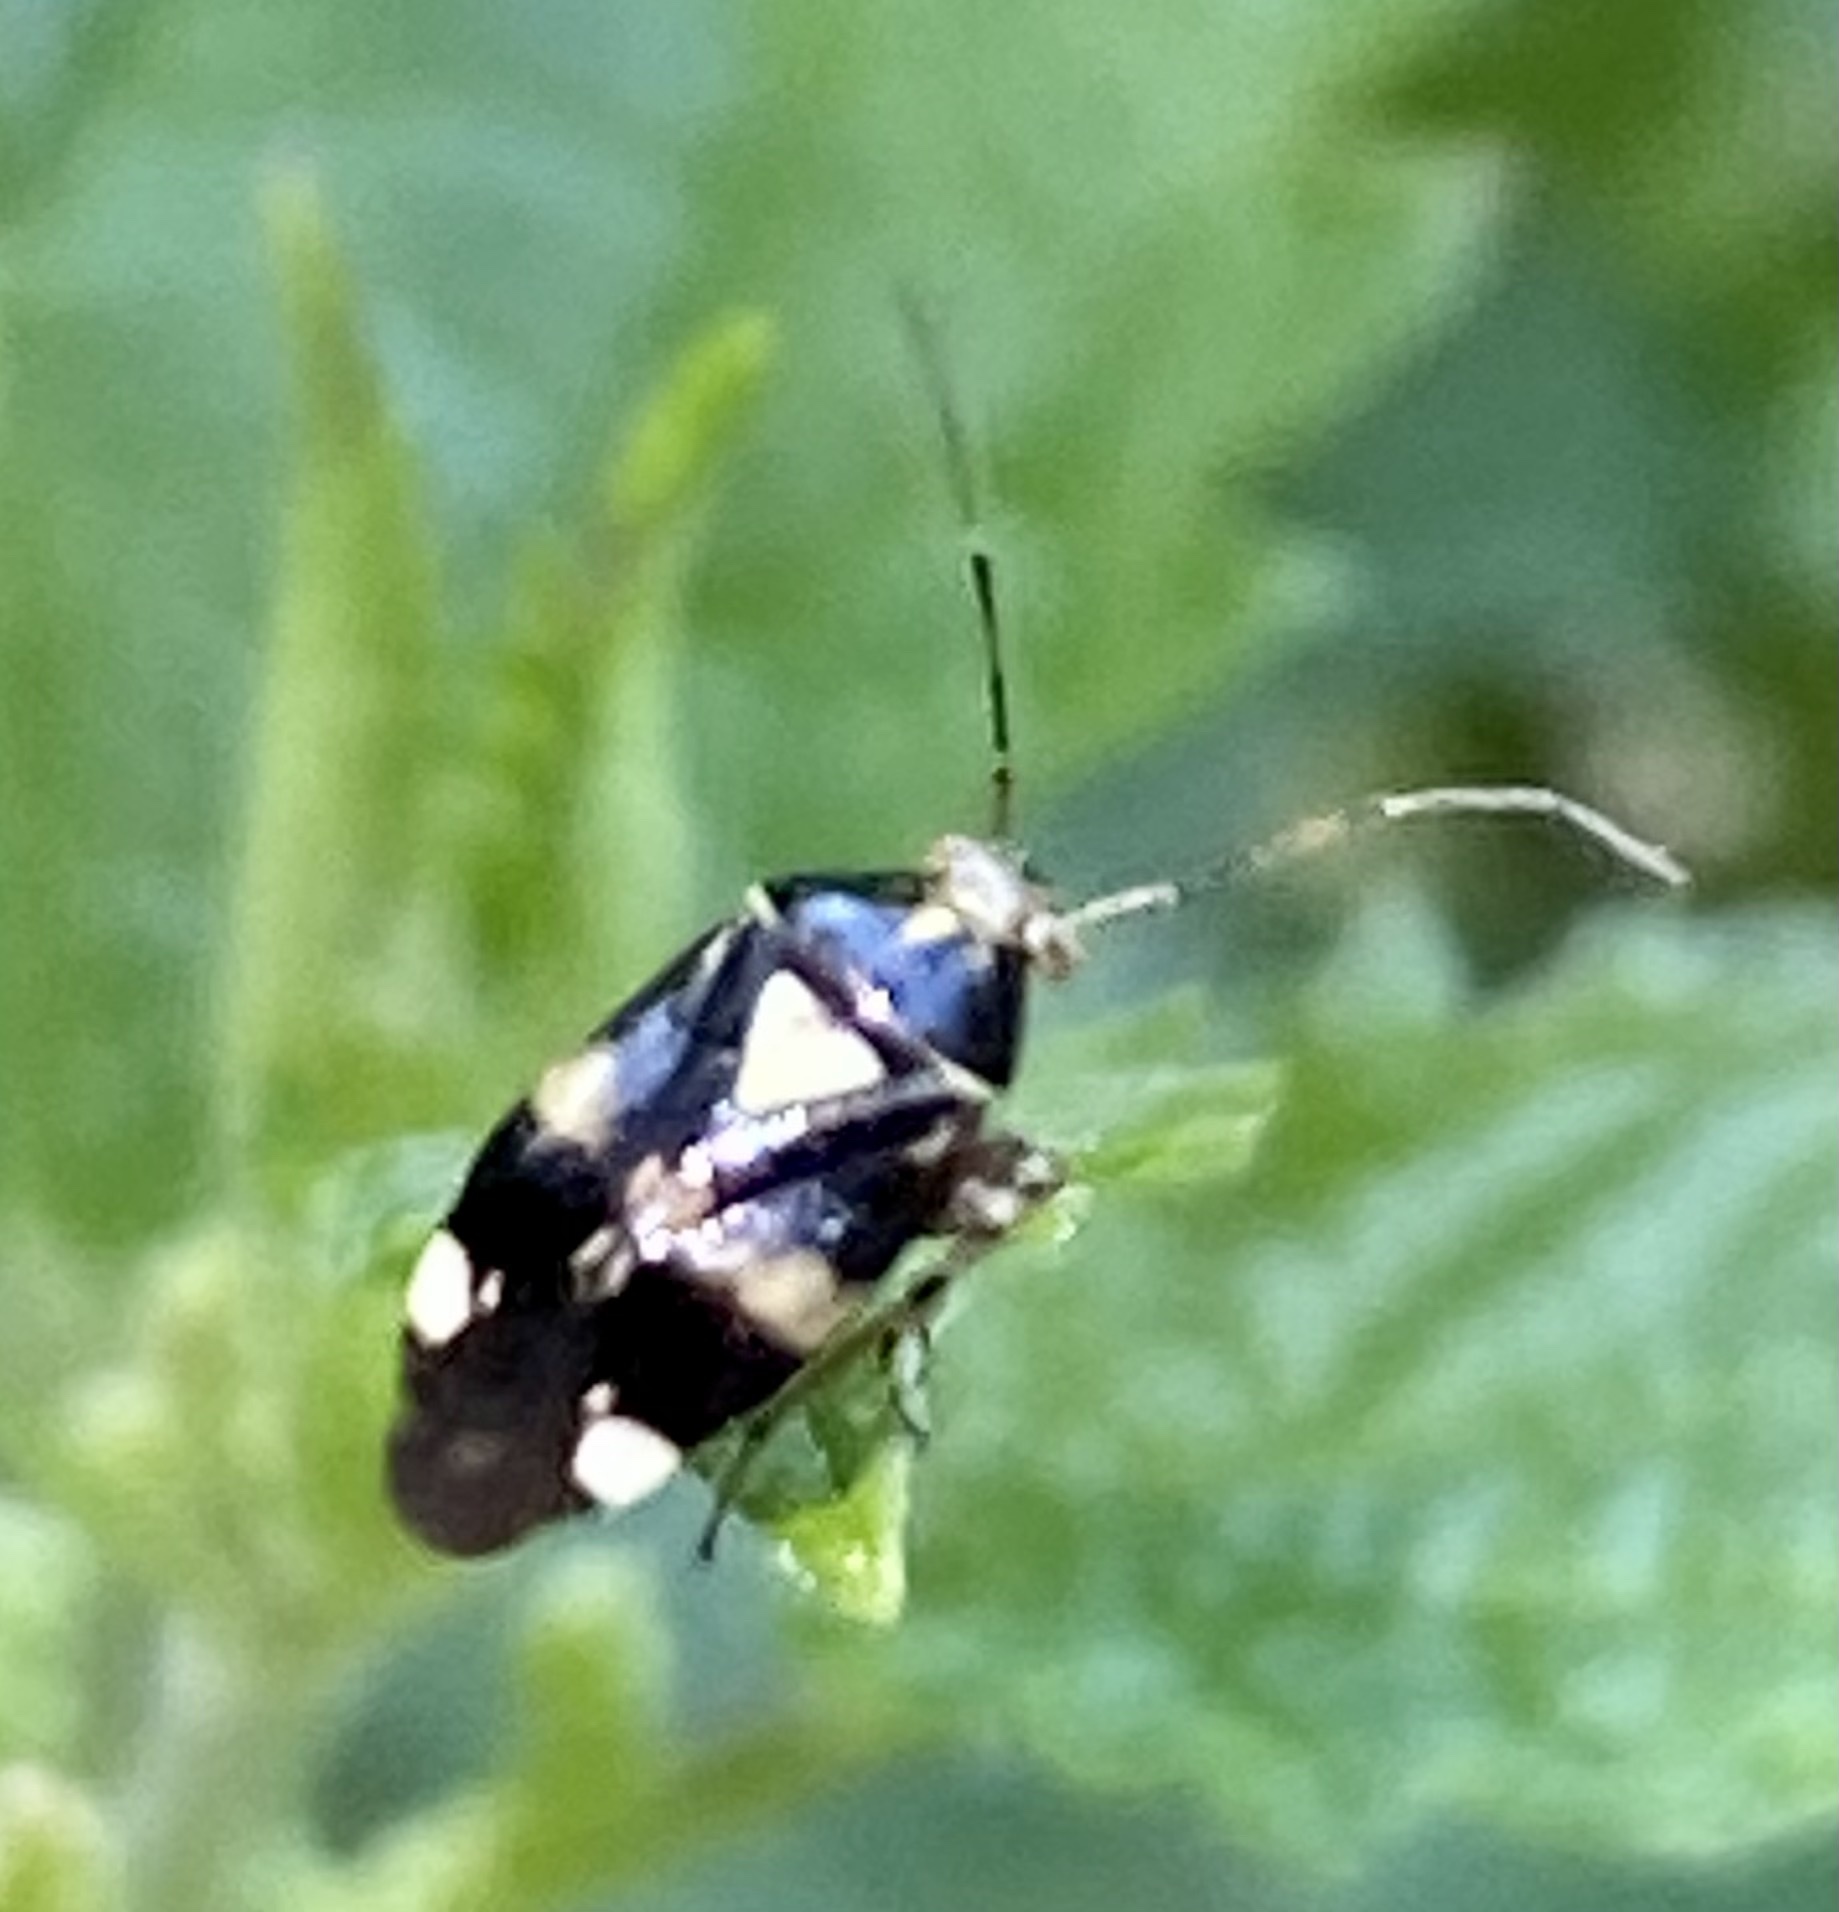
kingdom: Animalia
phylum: Arthropoda
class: Insecta
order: Hemiptera
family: Miridae
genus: Liocoris
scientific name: Liocoris tripustulatus
